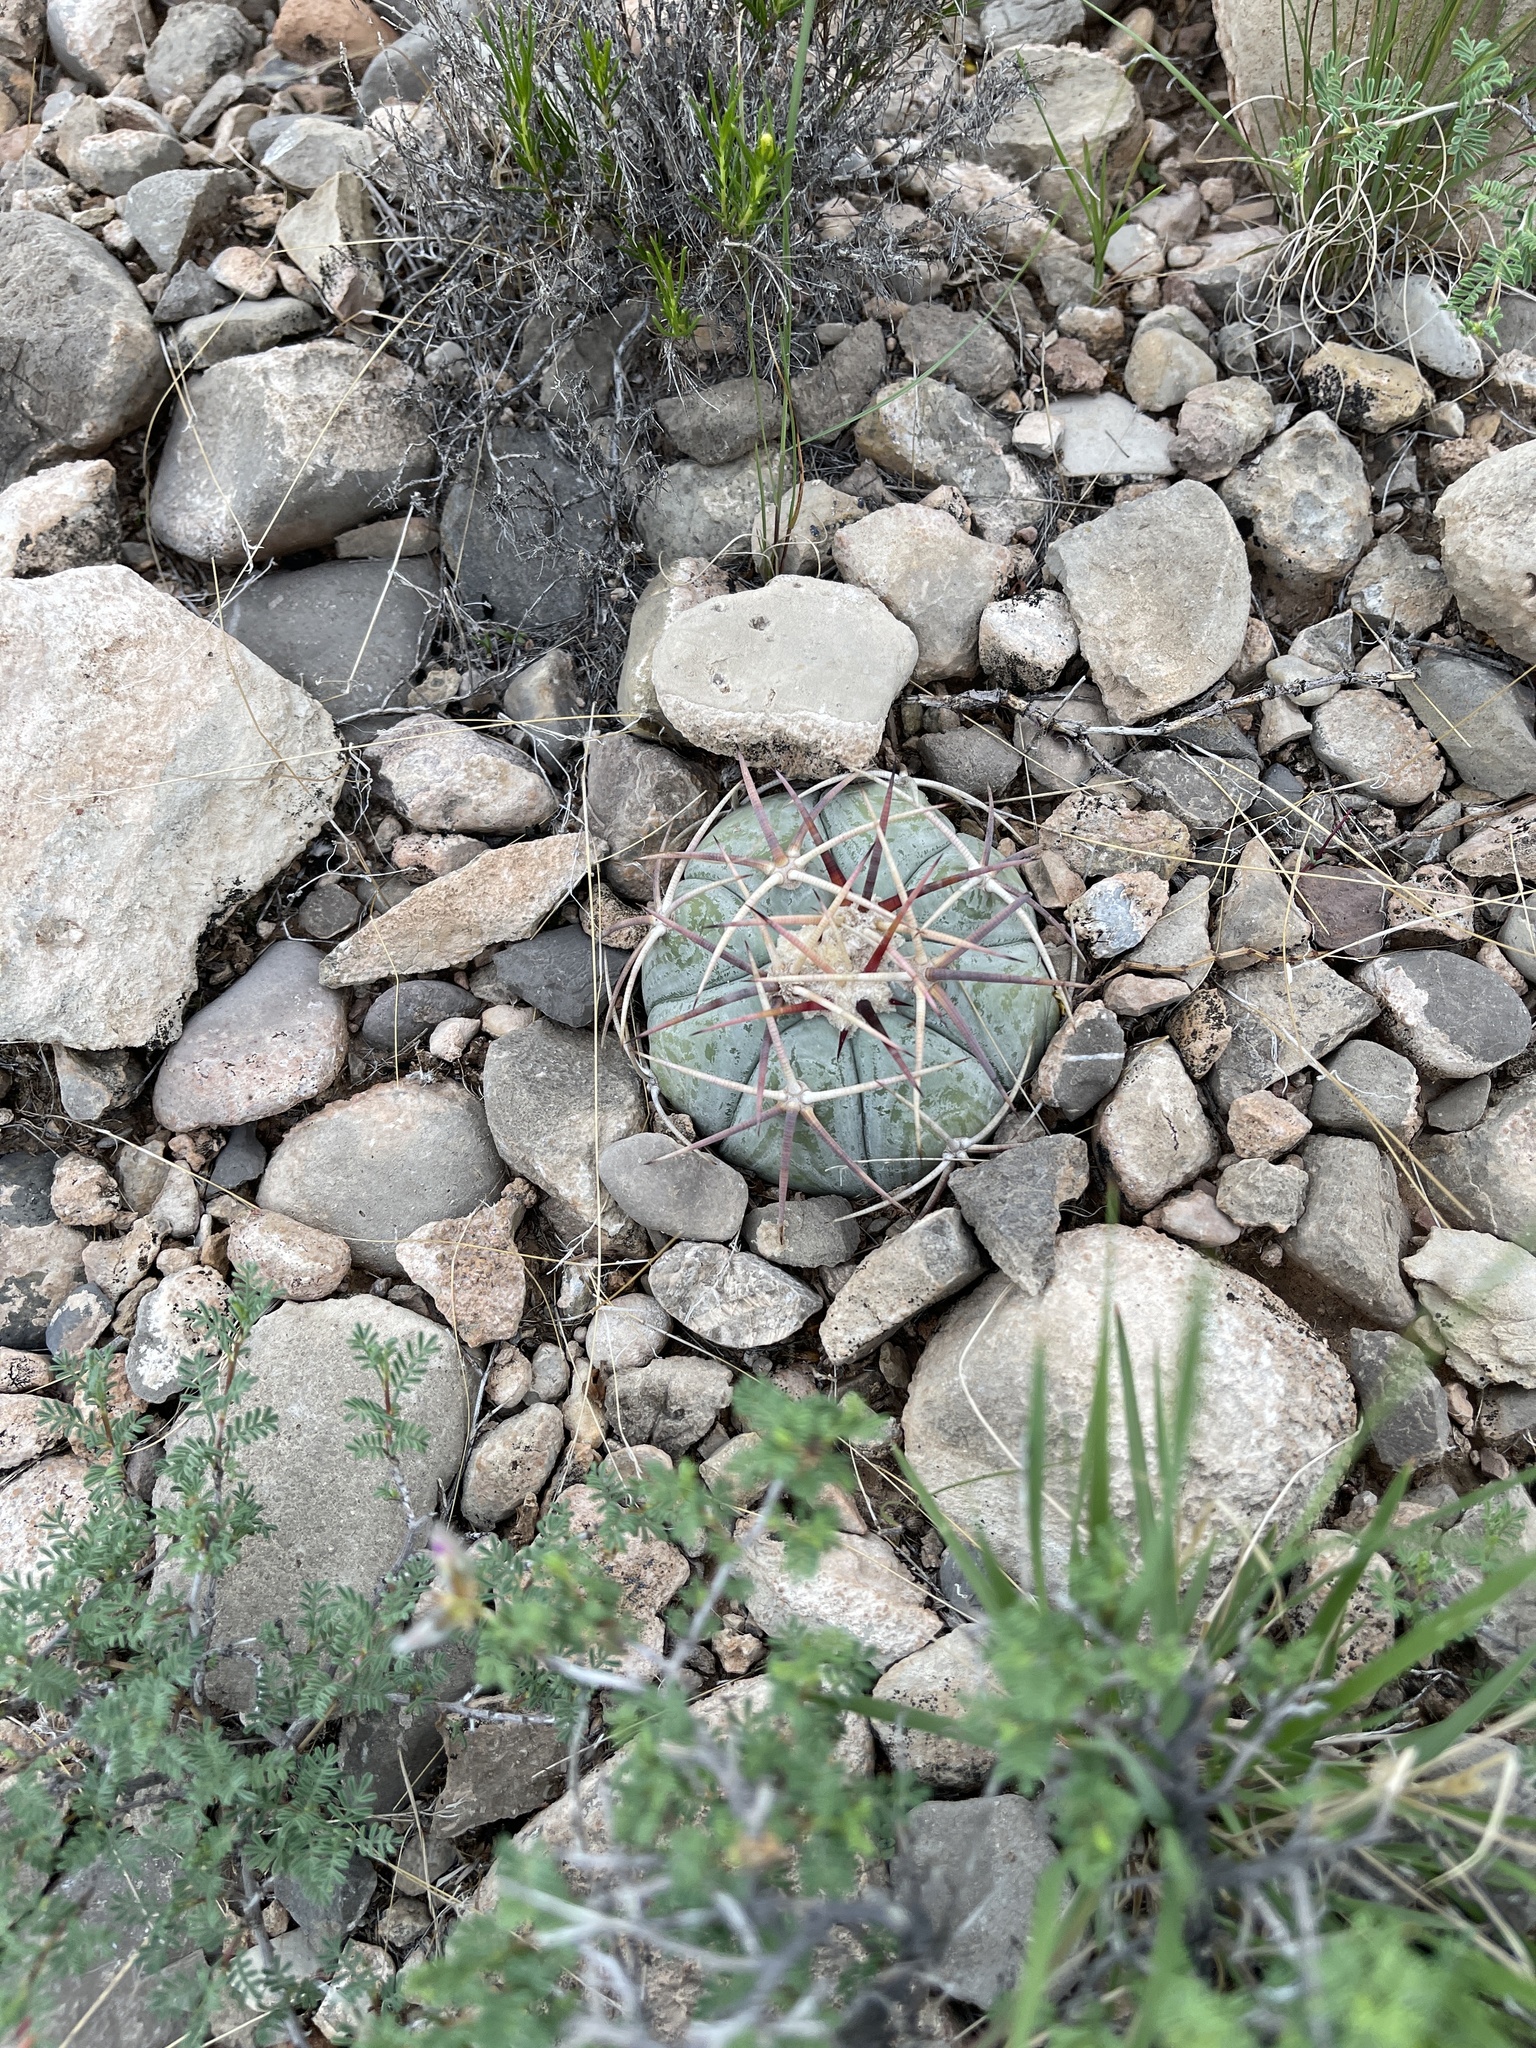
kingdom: Plantae
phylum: Tracheophyta
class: Magnoliopsida
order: Caryophyllales
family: Cactaceae
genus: Echinocactus
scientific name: Echinocactus horizonthalonius
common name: Devilshead
